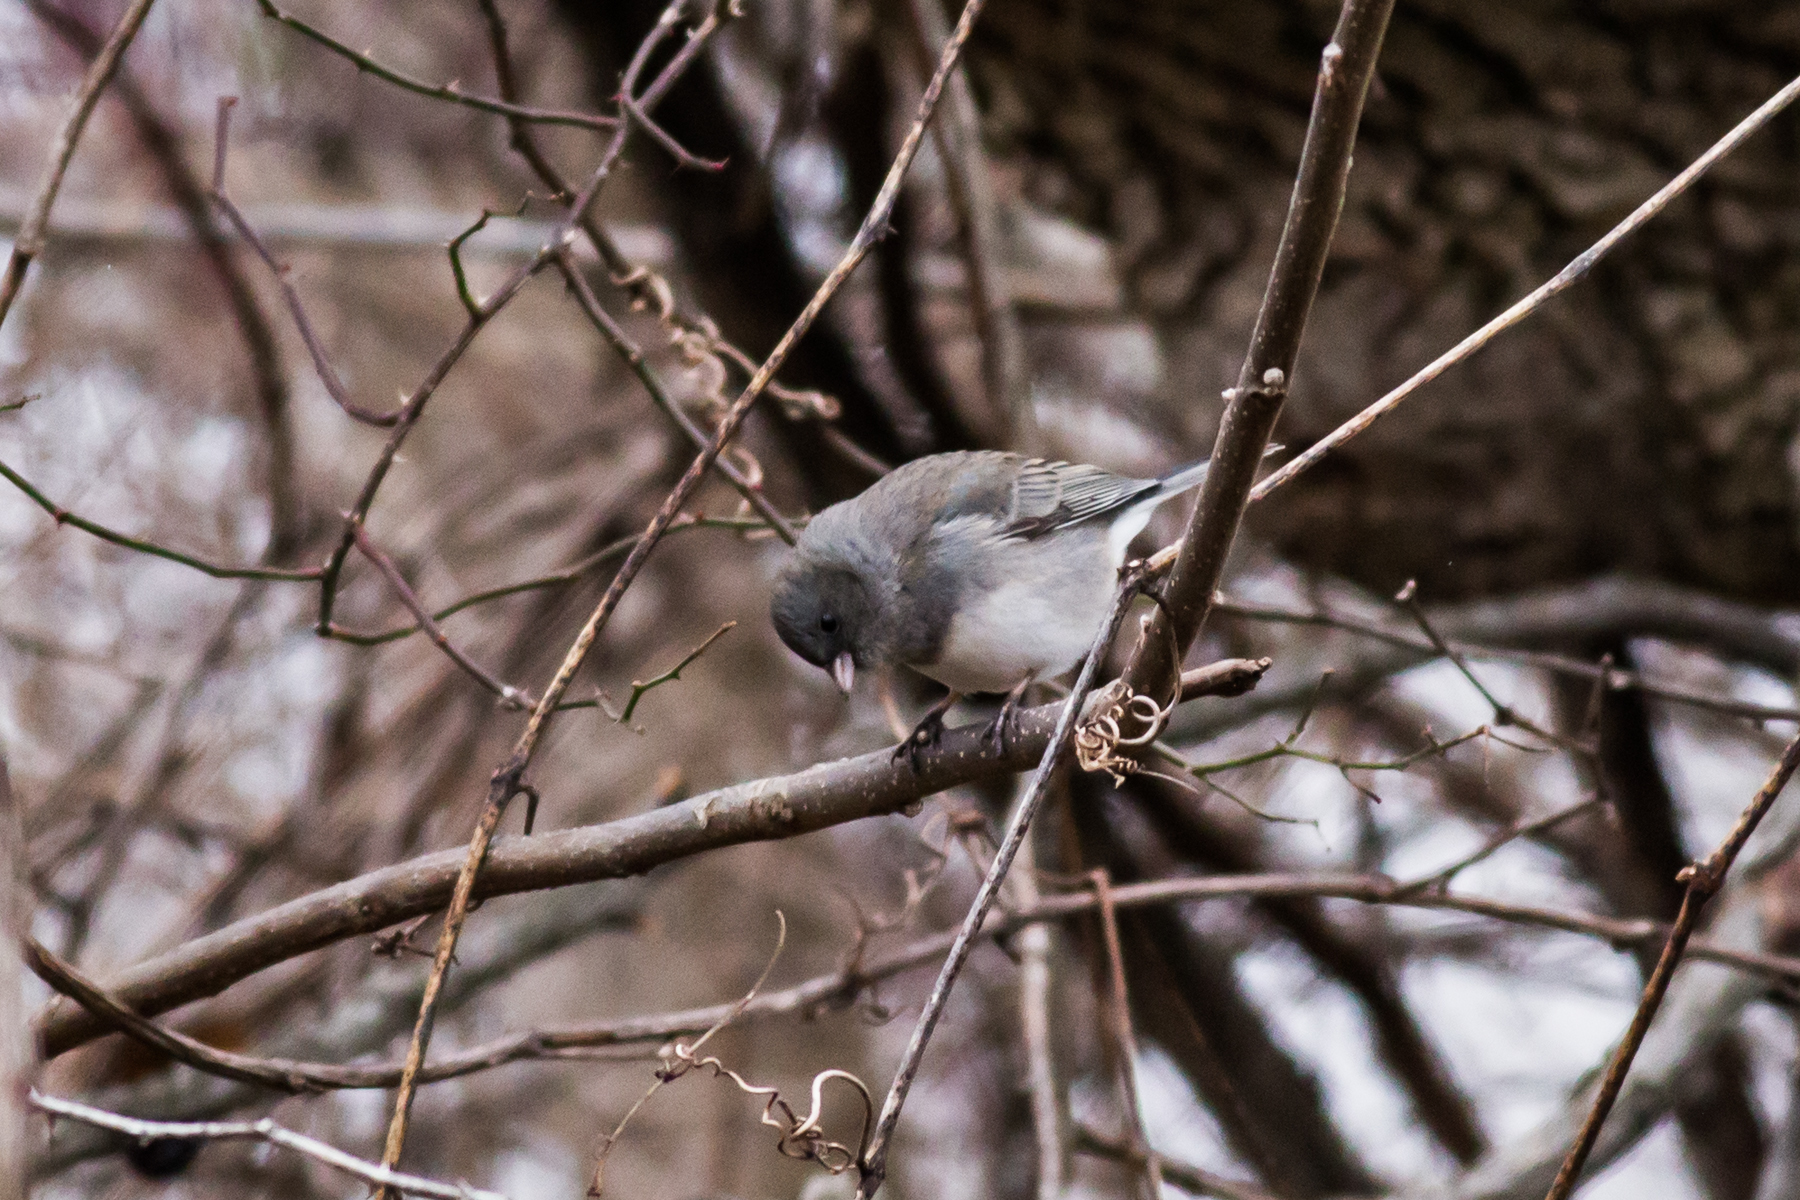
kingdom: Animalia
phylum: Chordata
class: Aves
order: Passeriformes
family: Passerellidae
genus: Junco
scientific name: Junco hyemalis
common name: Dark-eyed junco
